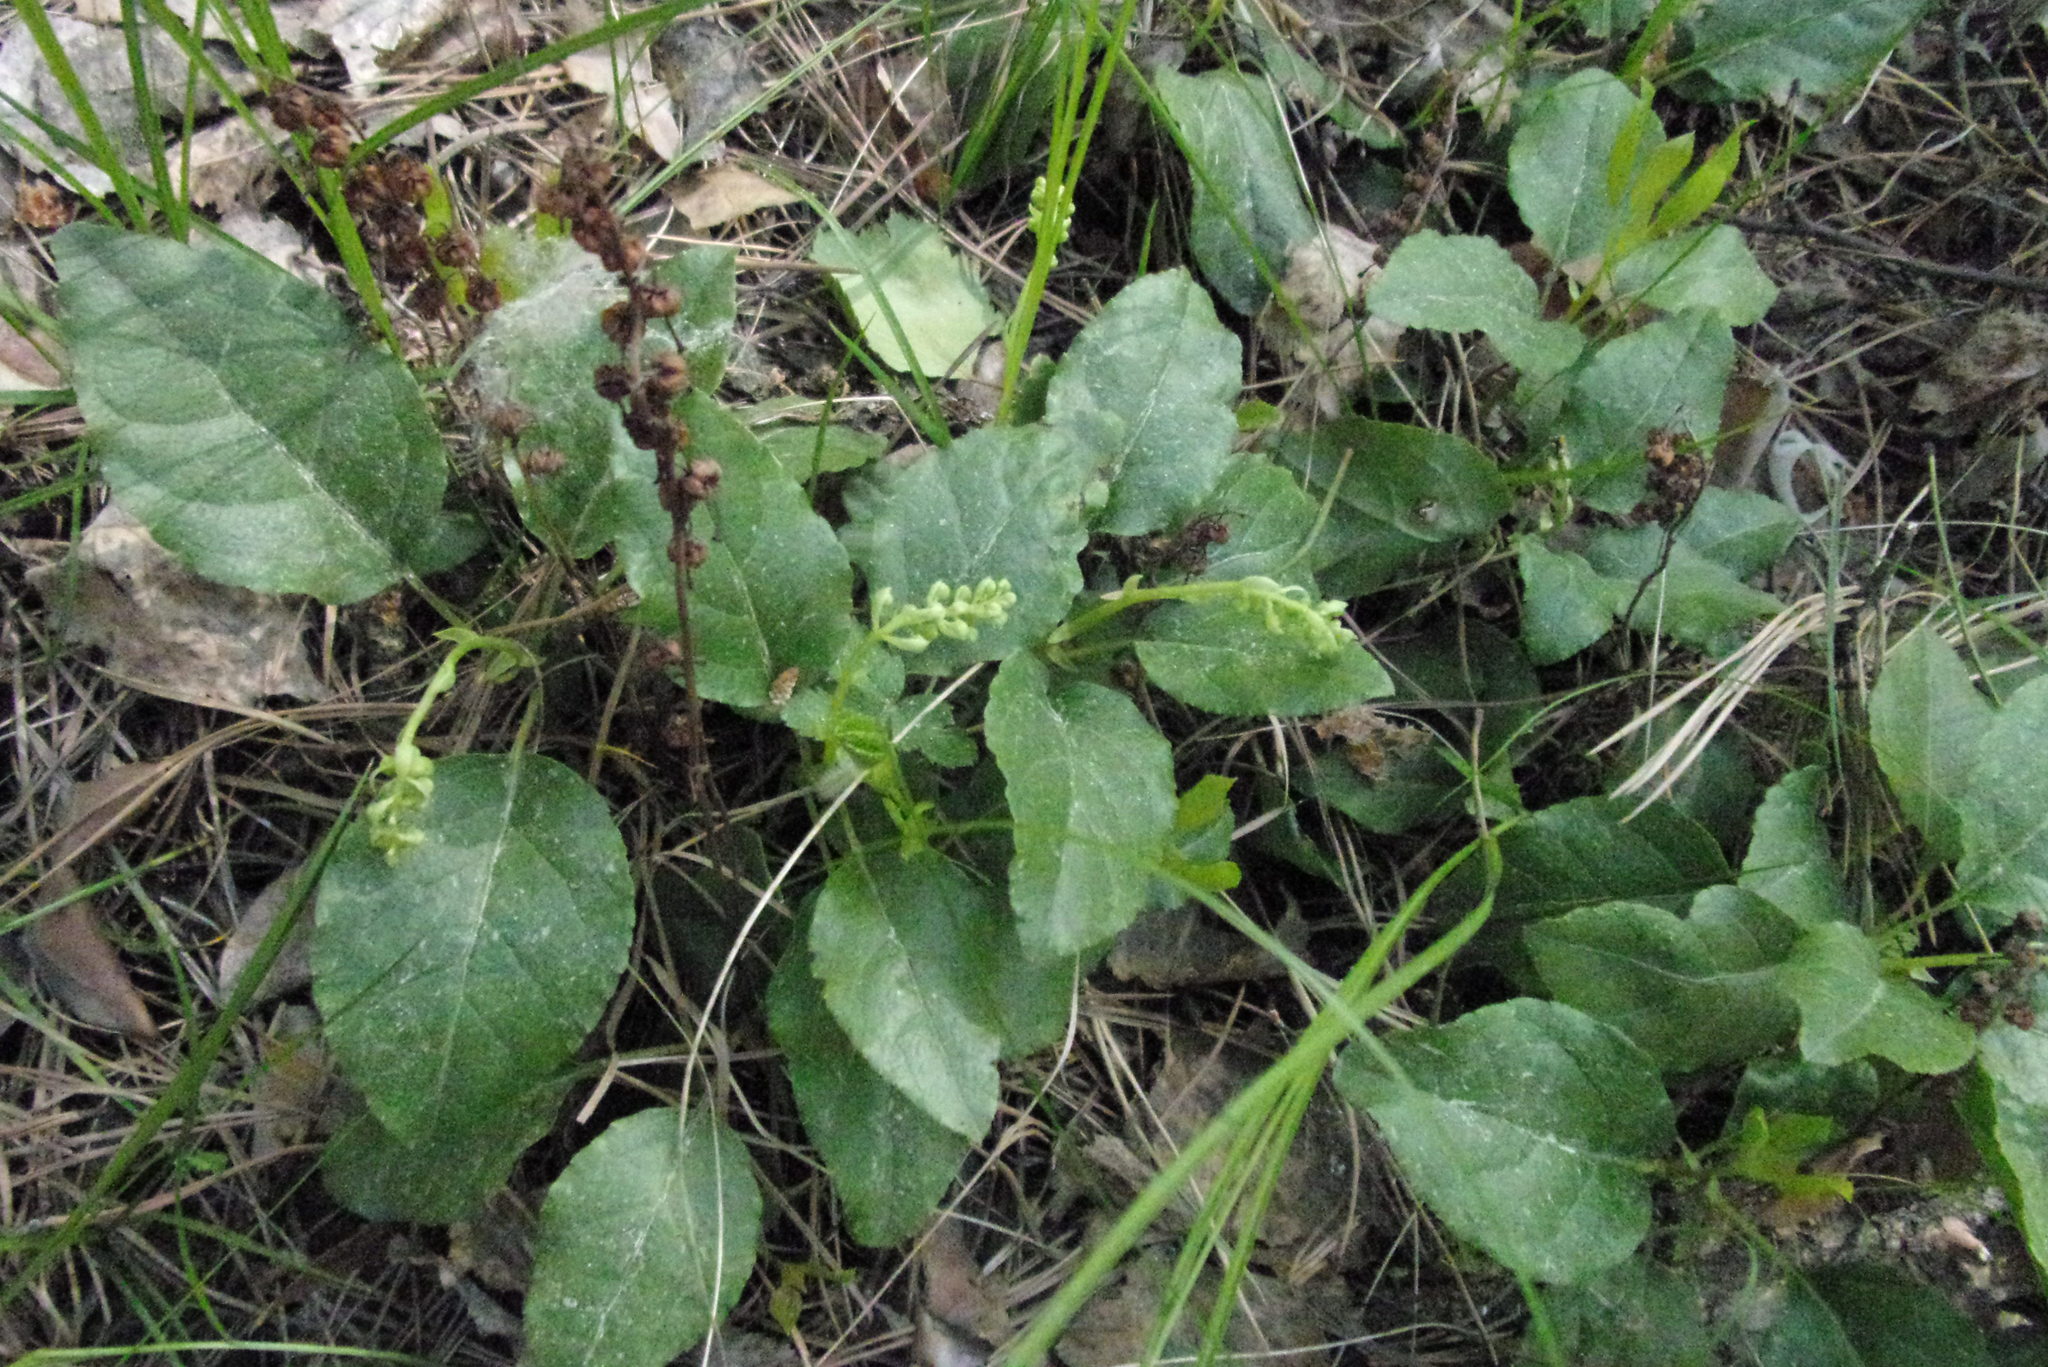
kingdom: Plantae
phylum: Tracheophyta
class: Magnoliopsida
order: Ericales
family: Ericaceae
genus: Orthilia
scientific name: Orthilia secunda
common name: One-sided orthilia
